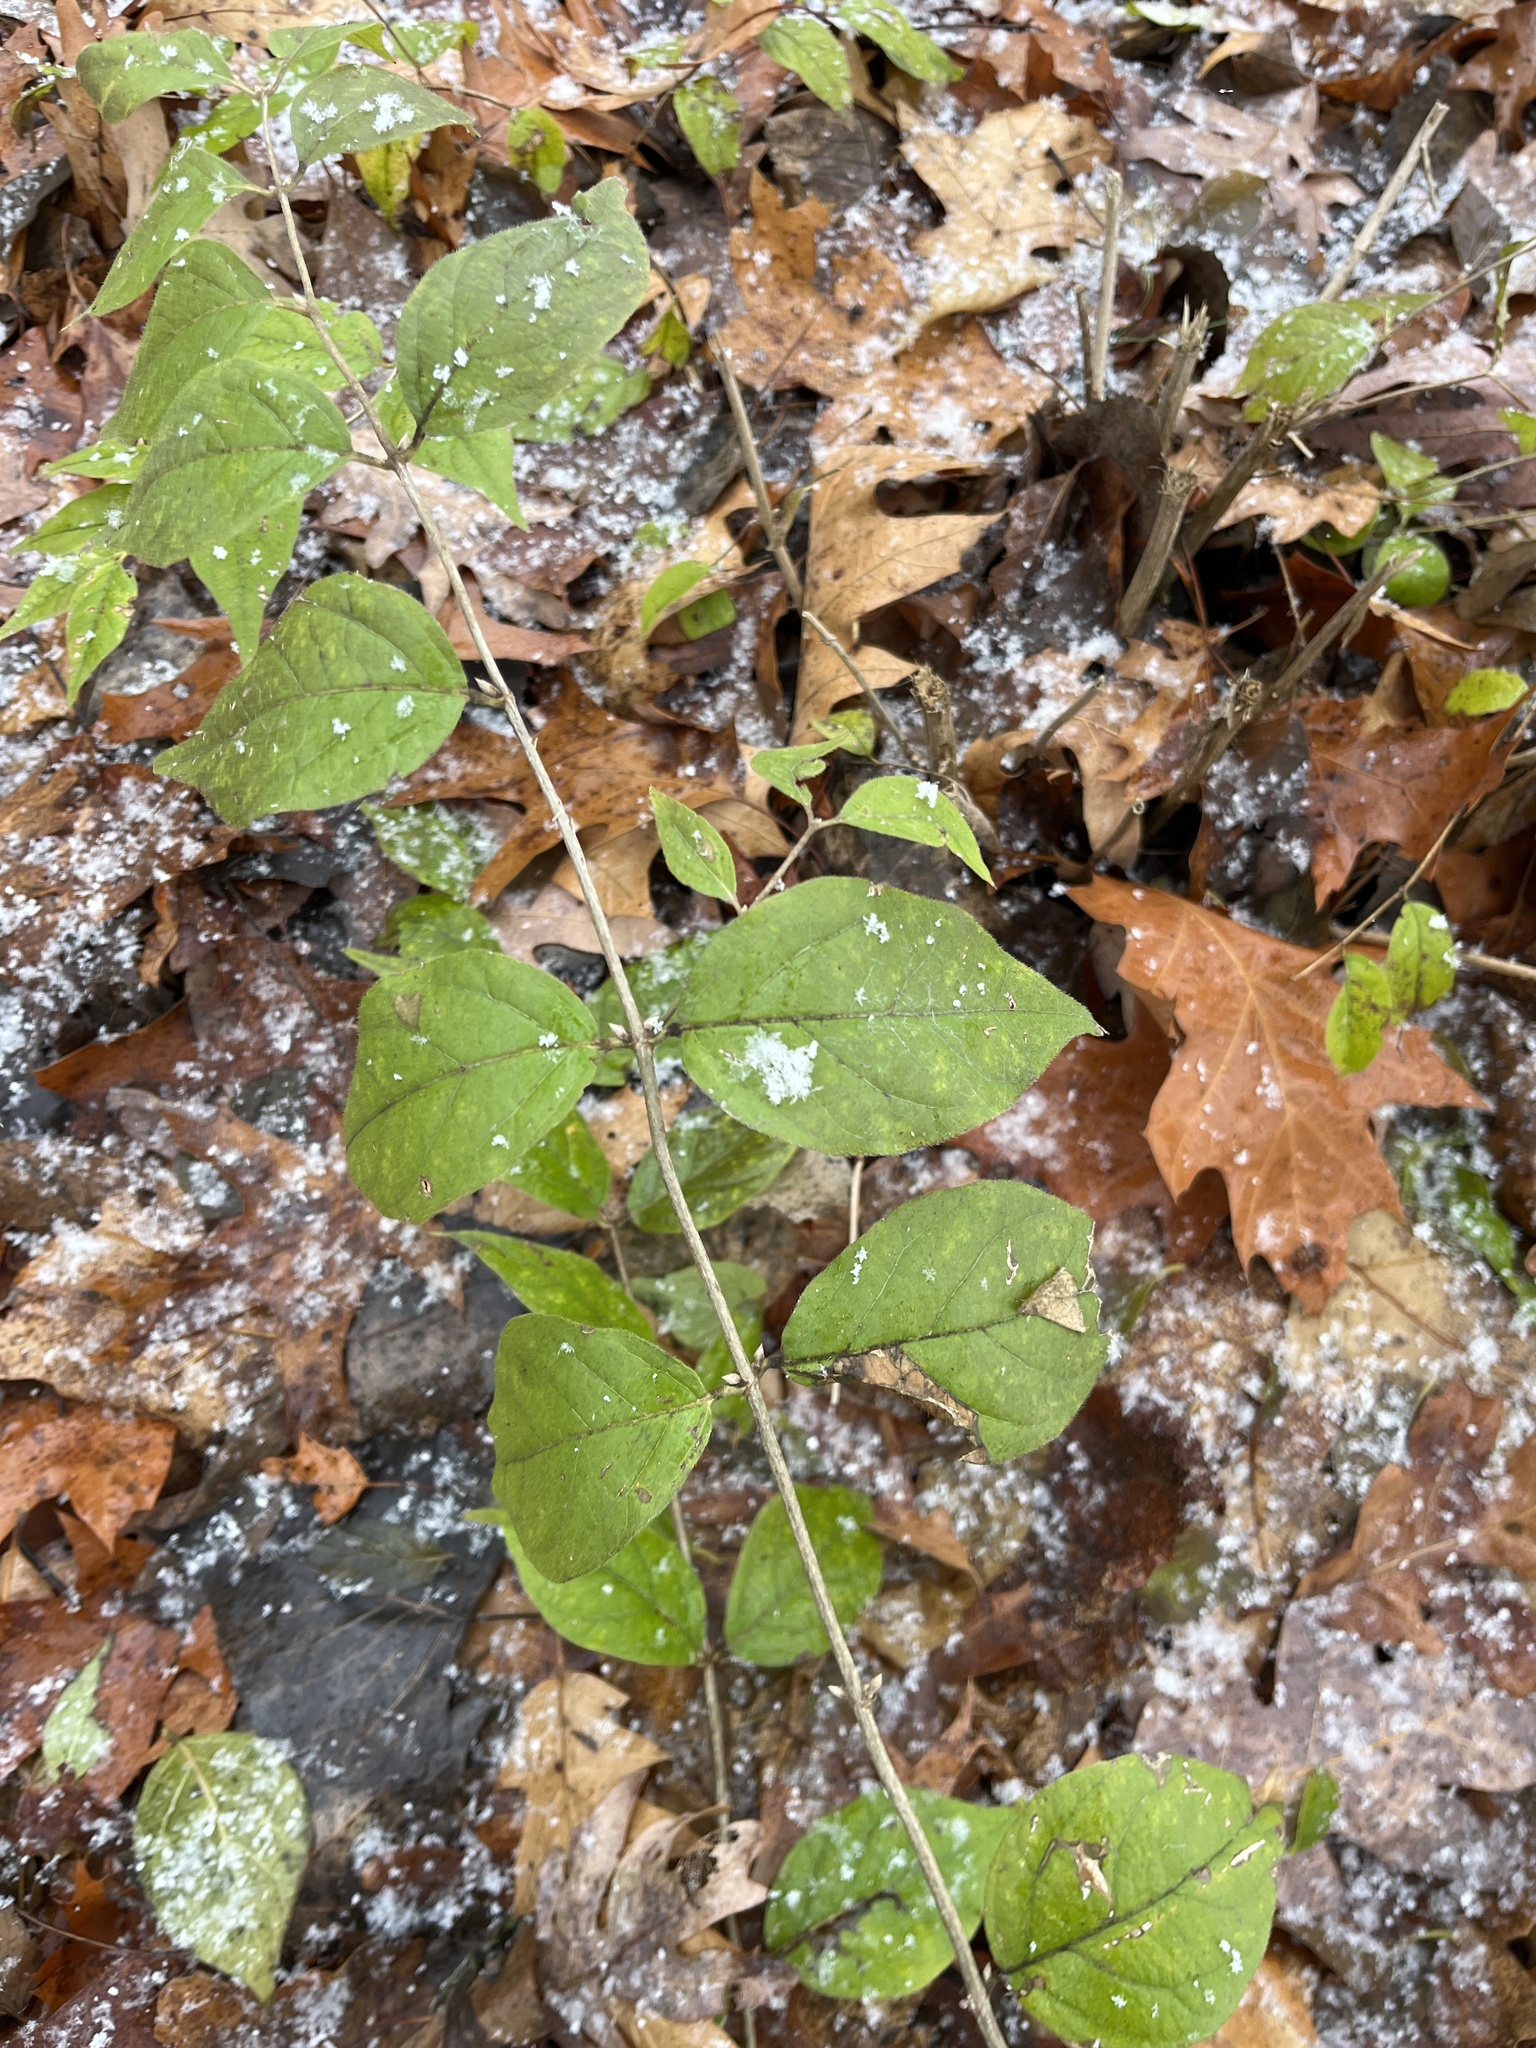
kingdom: Plantae
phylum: Tracheophyta
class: Magnoliopsida
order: Dipsacales
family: Caprifoliaceae
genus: Lonicera
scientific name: Lonicera maackii
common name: Amur honeysuckle
